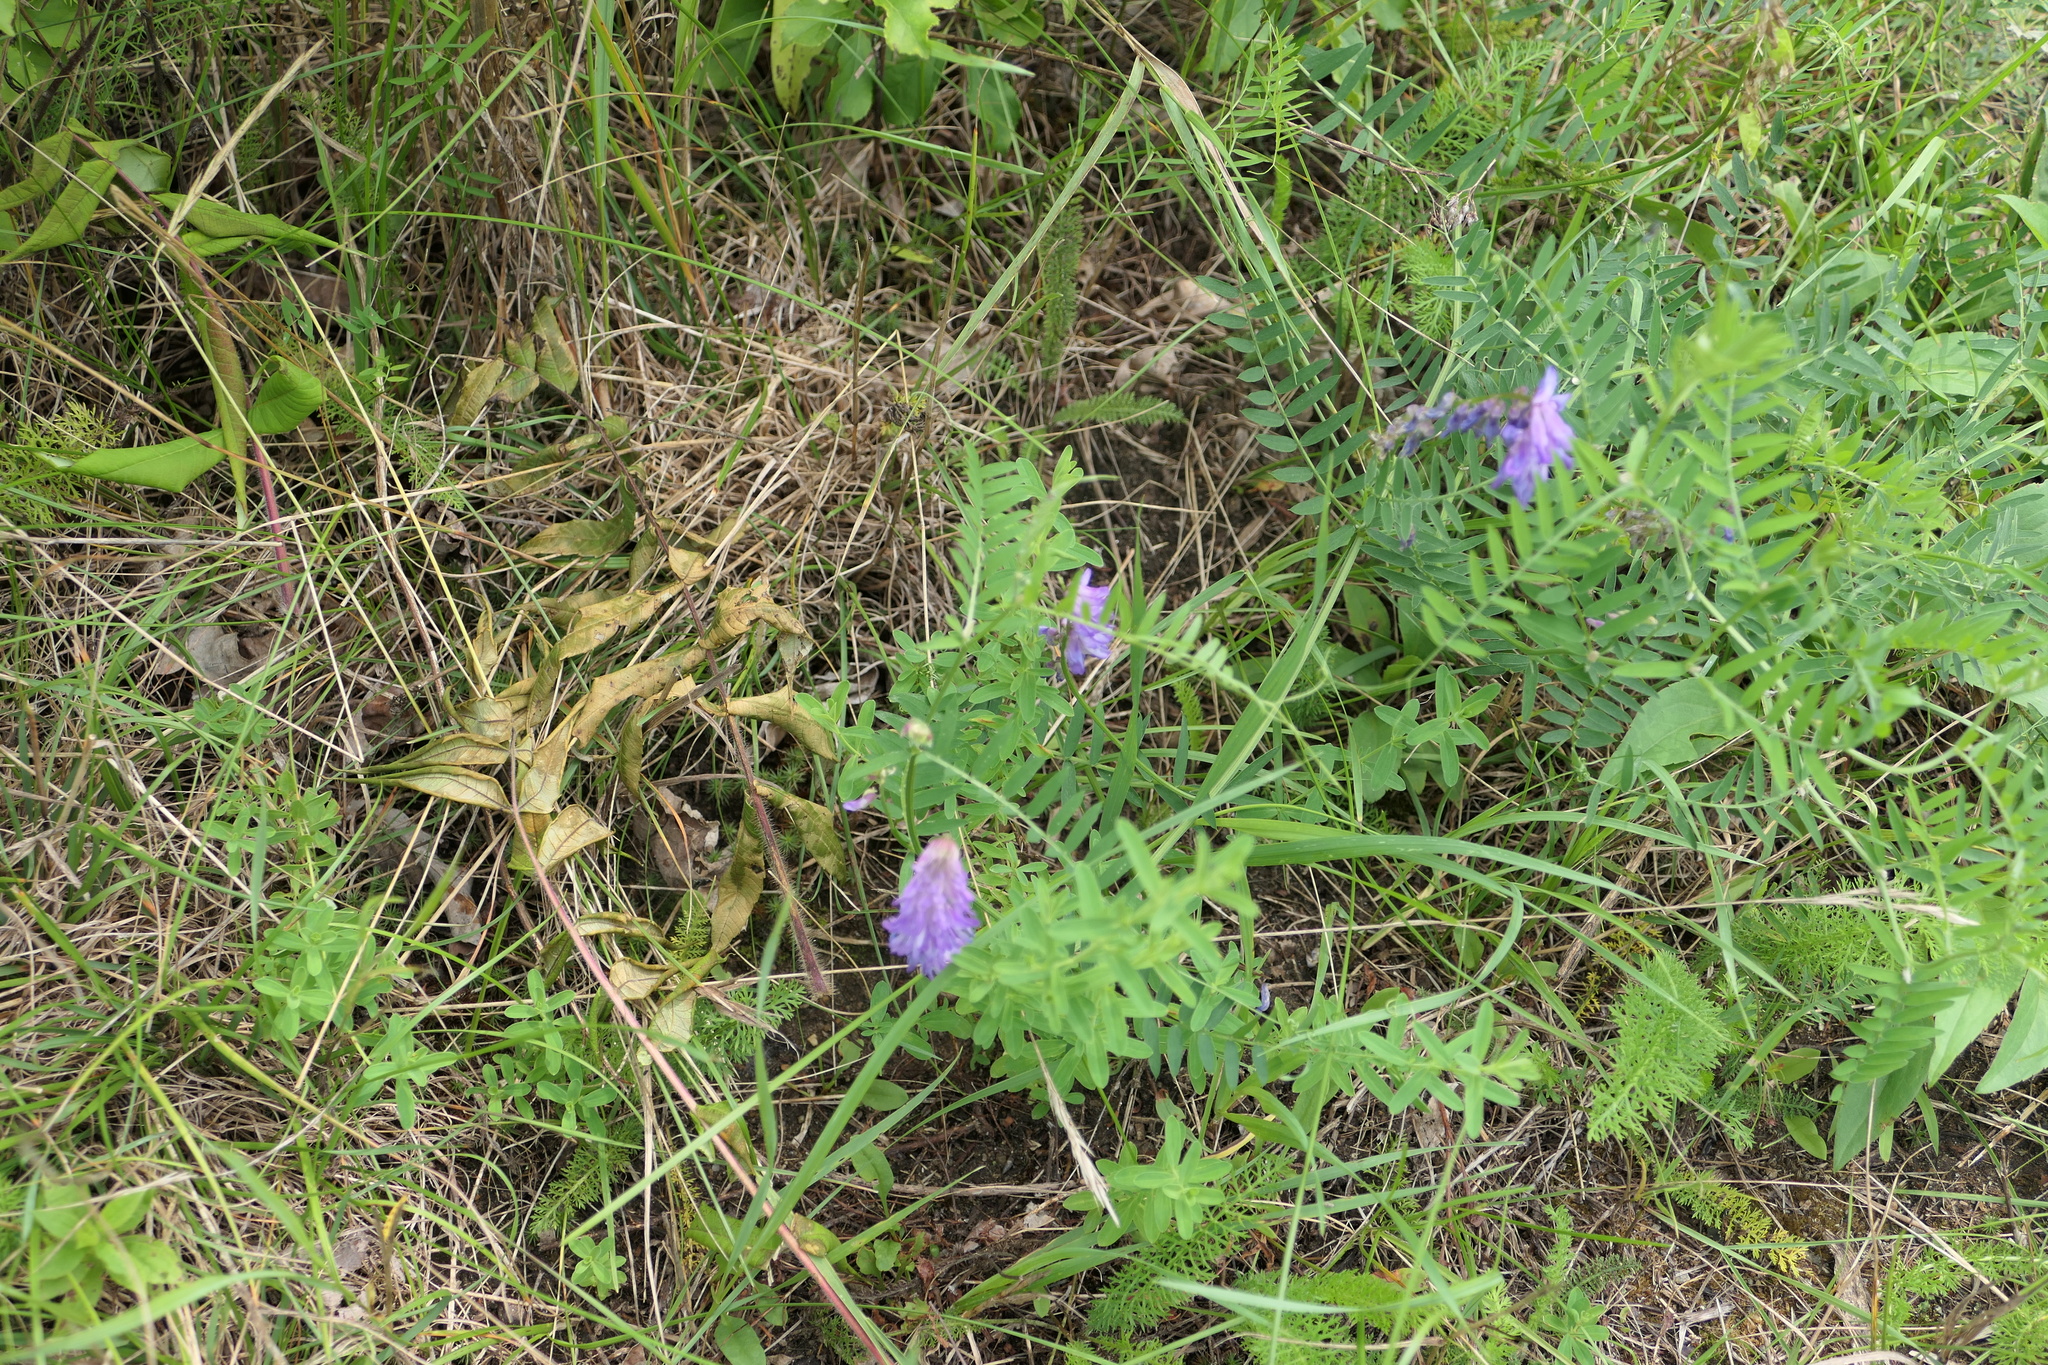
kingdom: Plantae
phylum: Tracheophyta
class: Magnoliopsida
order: Fabales
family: Fabaceae
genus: Vicia
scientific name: Vicia cracca
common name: Bird vetch
